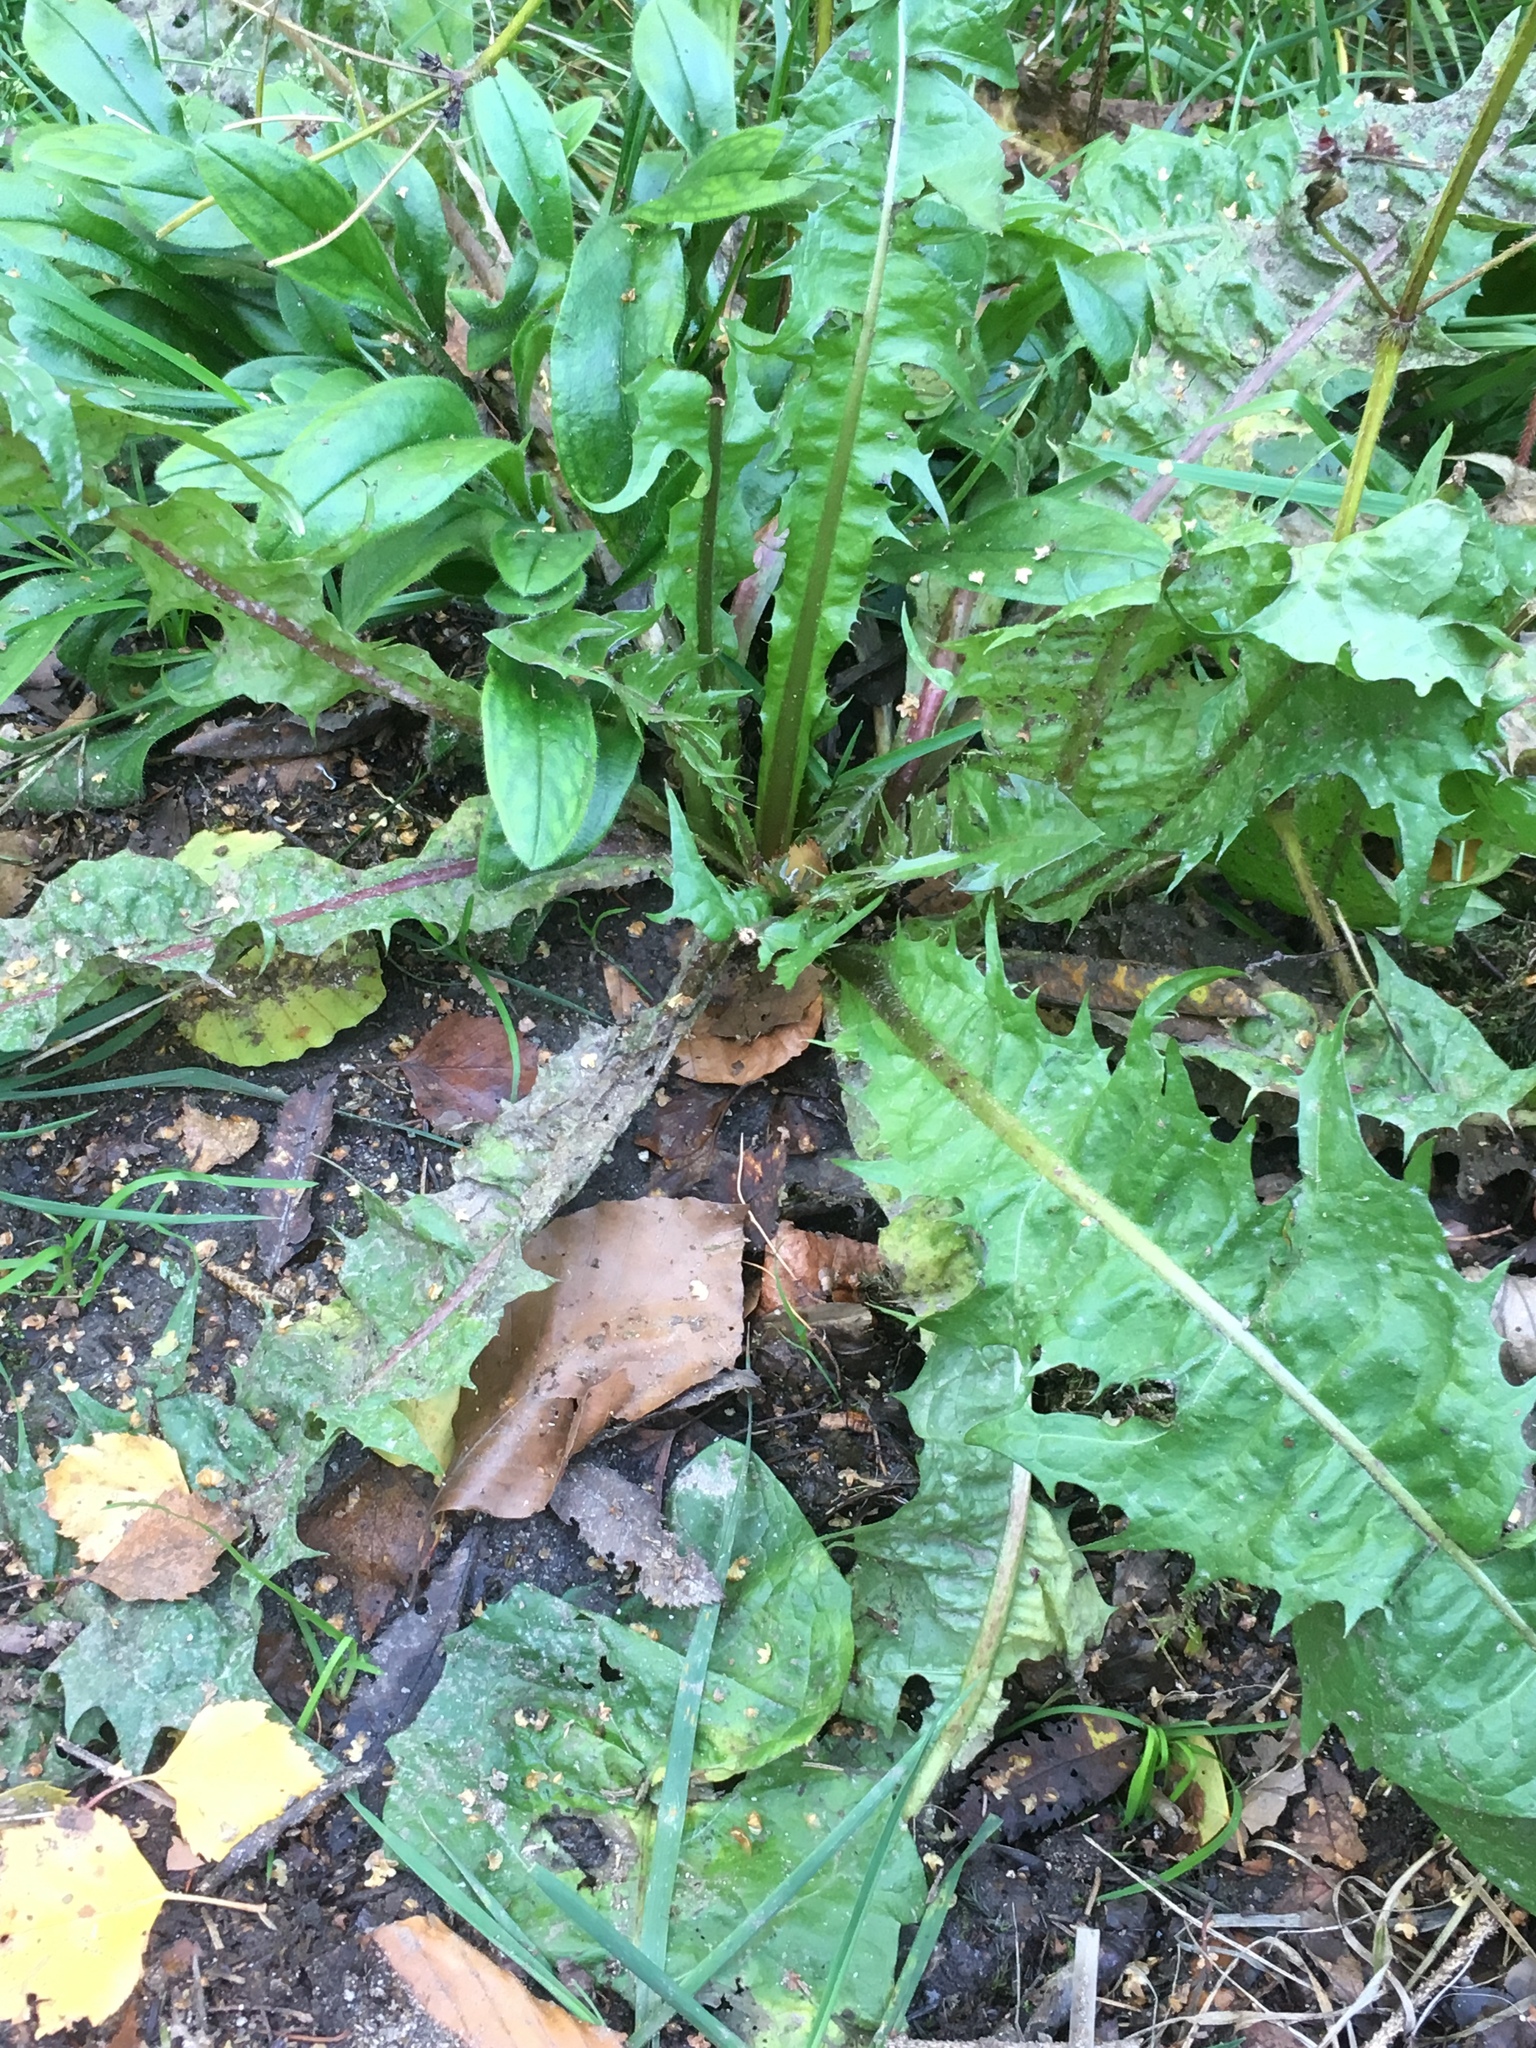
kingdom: Plantae
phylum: Tracheophyta
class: Magnoliopsida
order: Asterales
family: Asteraceae
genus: Taraxacum
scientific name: Taraxacum officinale
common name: Common dandelion
